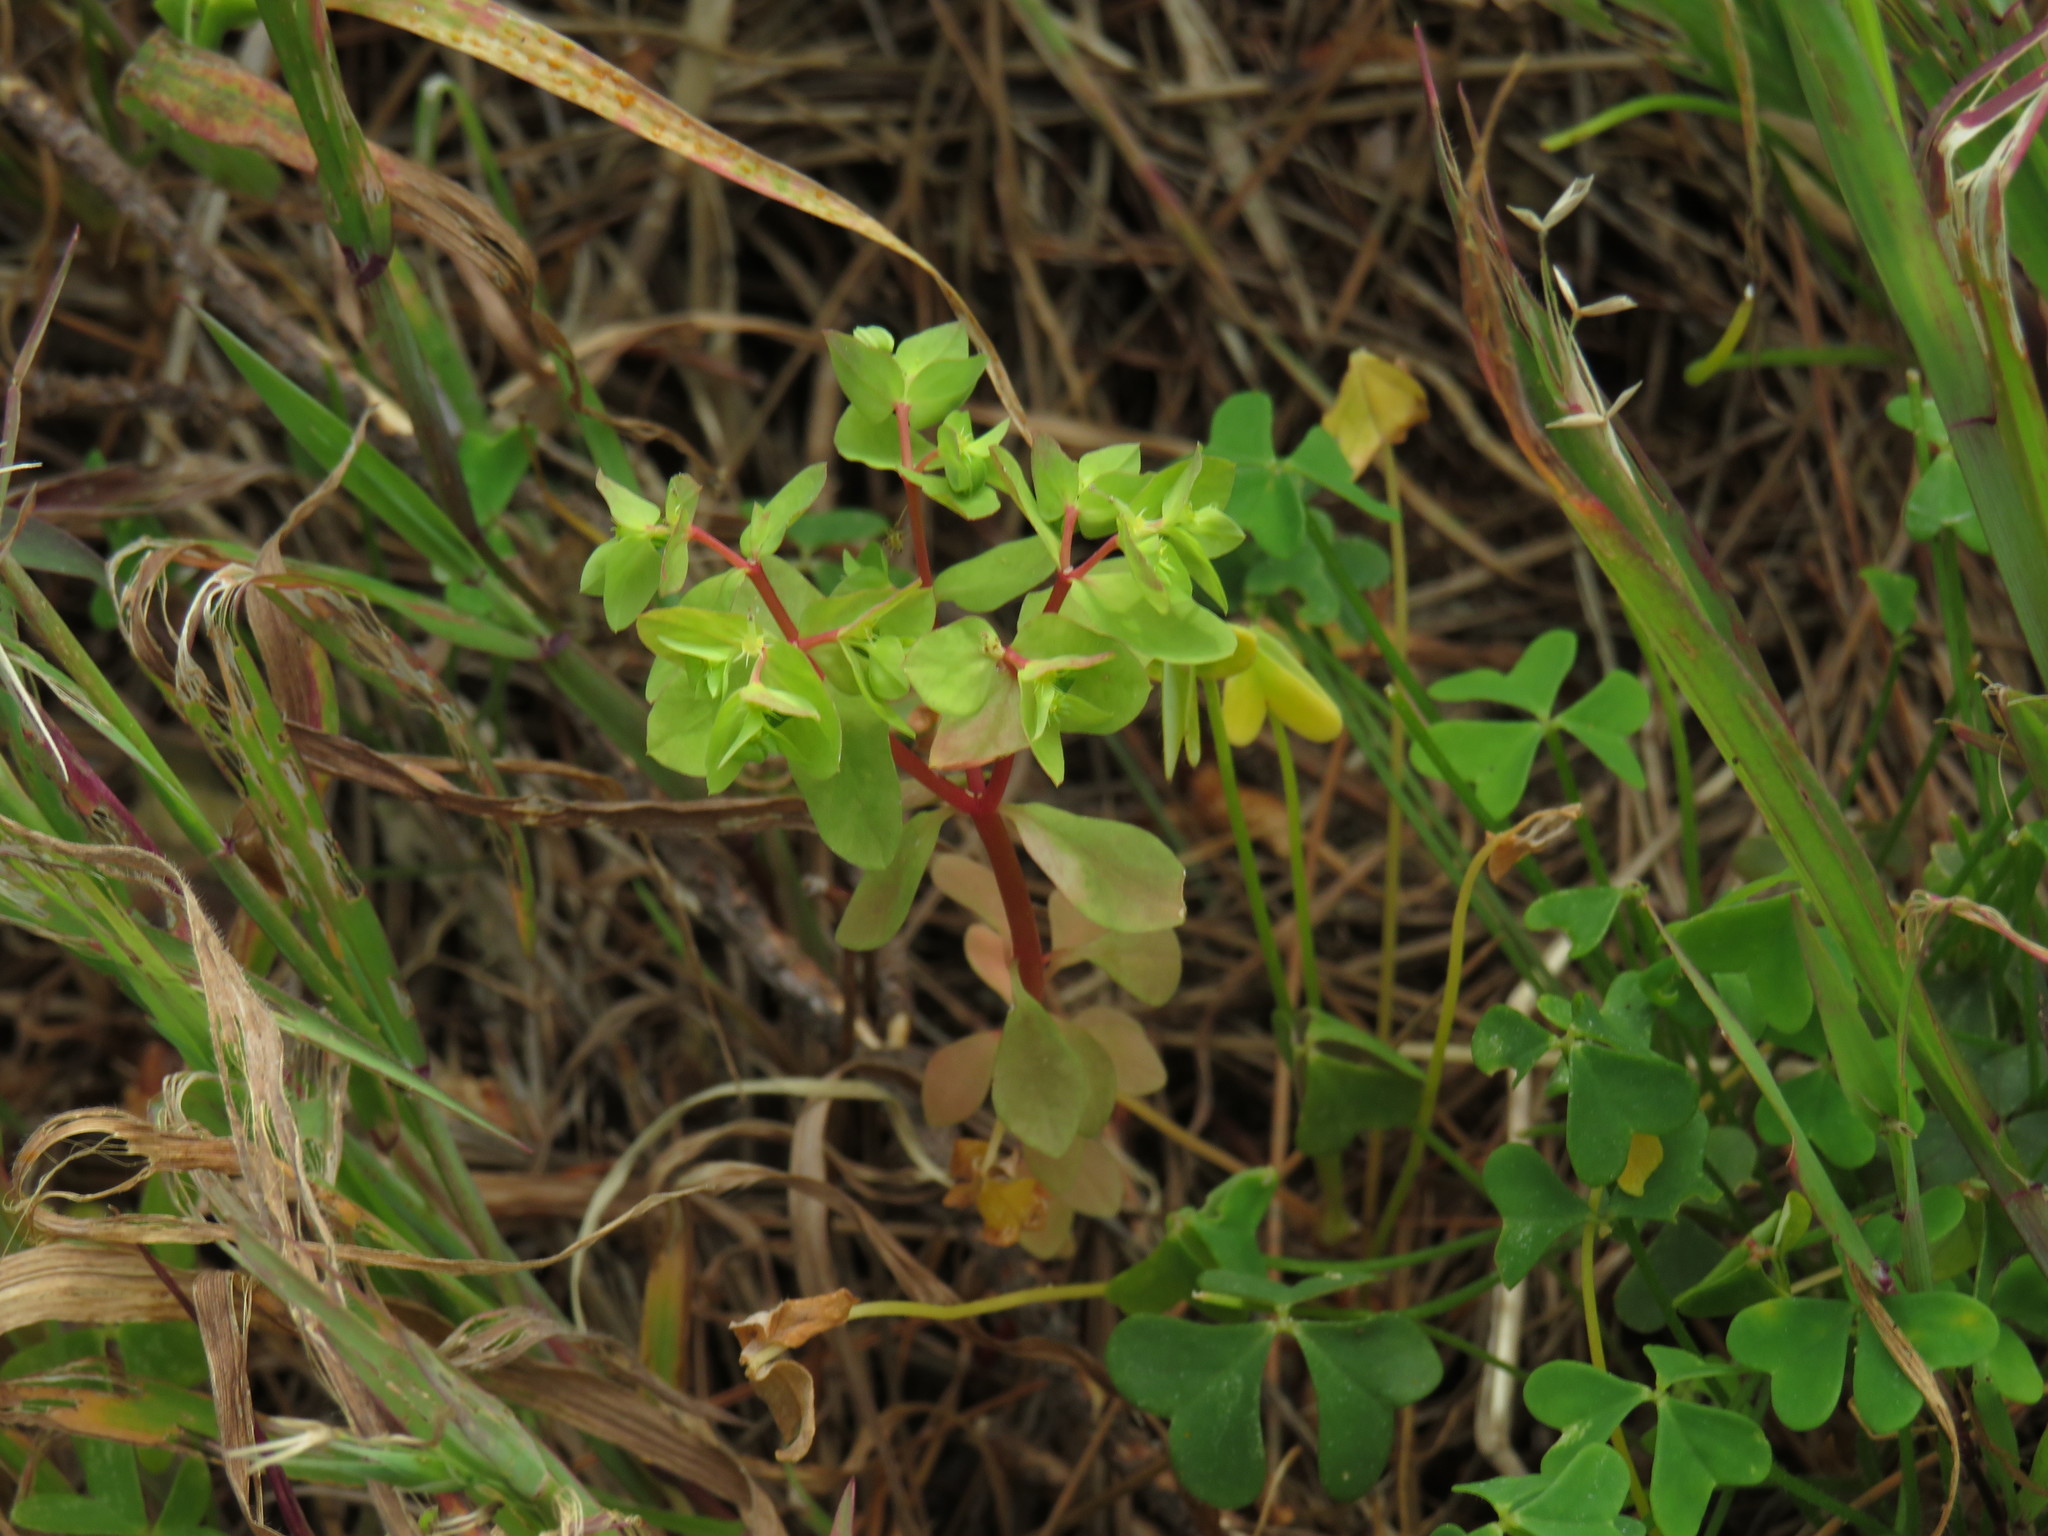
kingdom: Plantae
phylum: Tracheophyta
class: Magnoliopsida
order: Malpighiales
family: Euphorbiaceae
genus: Euphorbia
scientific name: Euphorbia peplus
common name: Petty spurge
